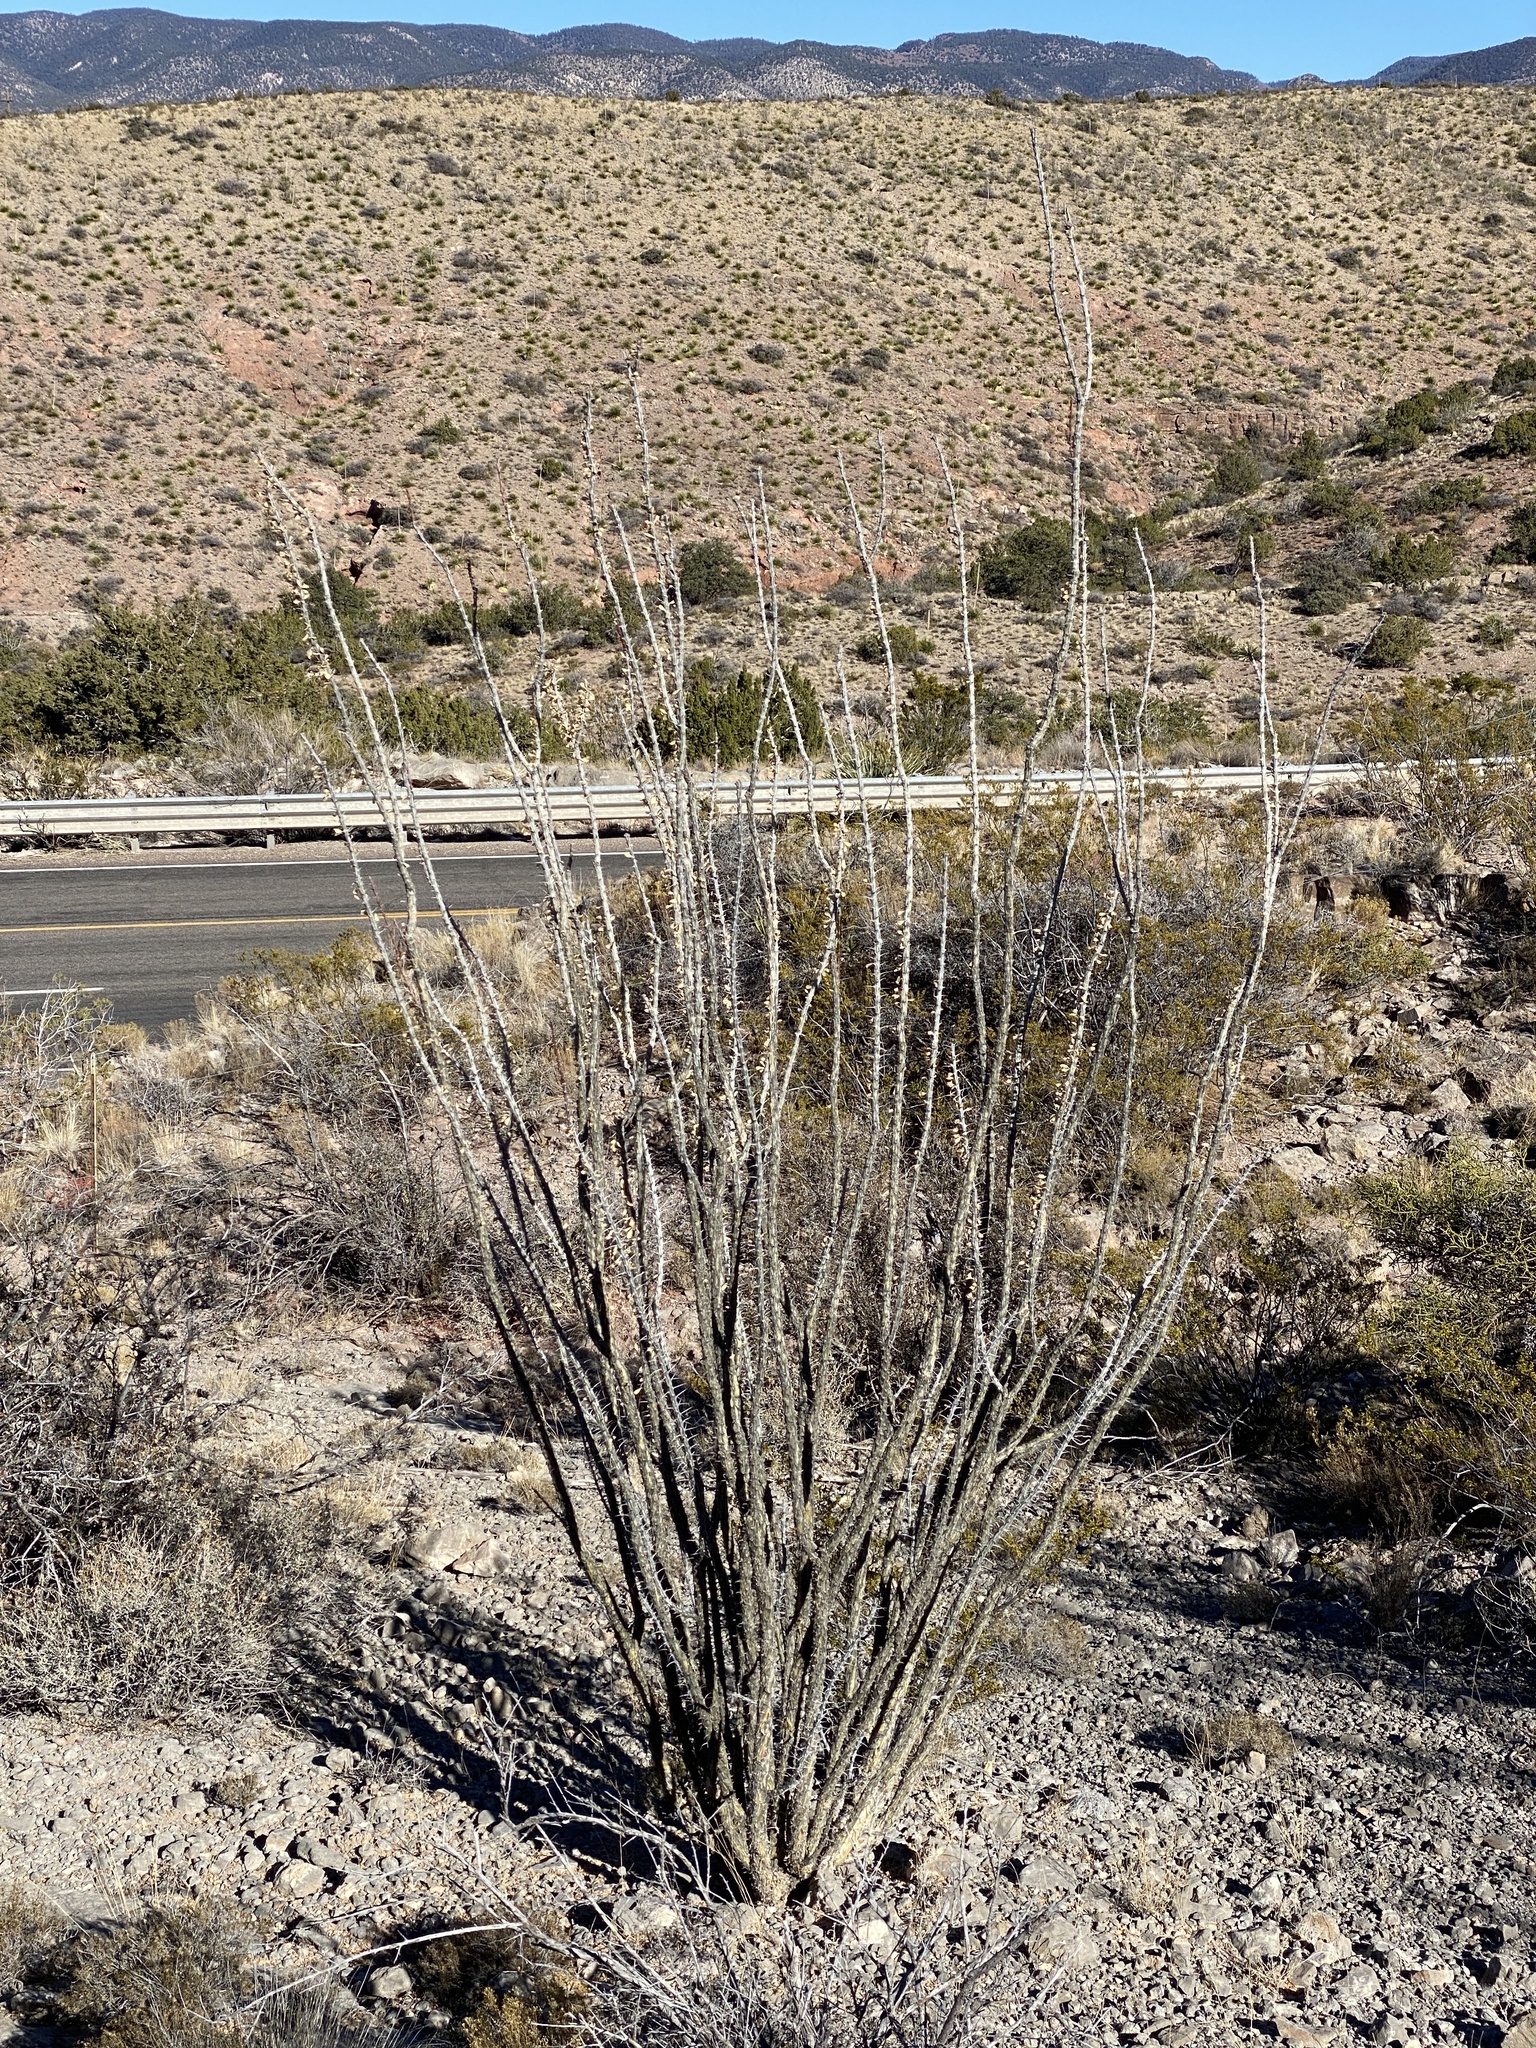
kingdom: Plantae
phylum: Tracheophyta
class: Magnoliopsida
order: Ericales
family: Fouquieriaceae
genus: Fouquieria
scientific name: Fouquieria splendens
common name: Vine-cactus
